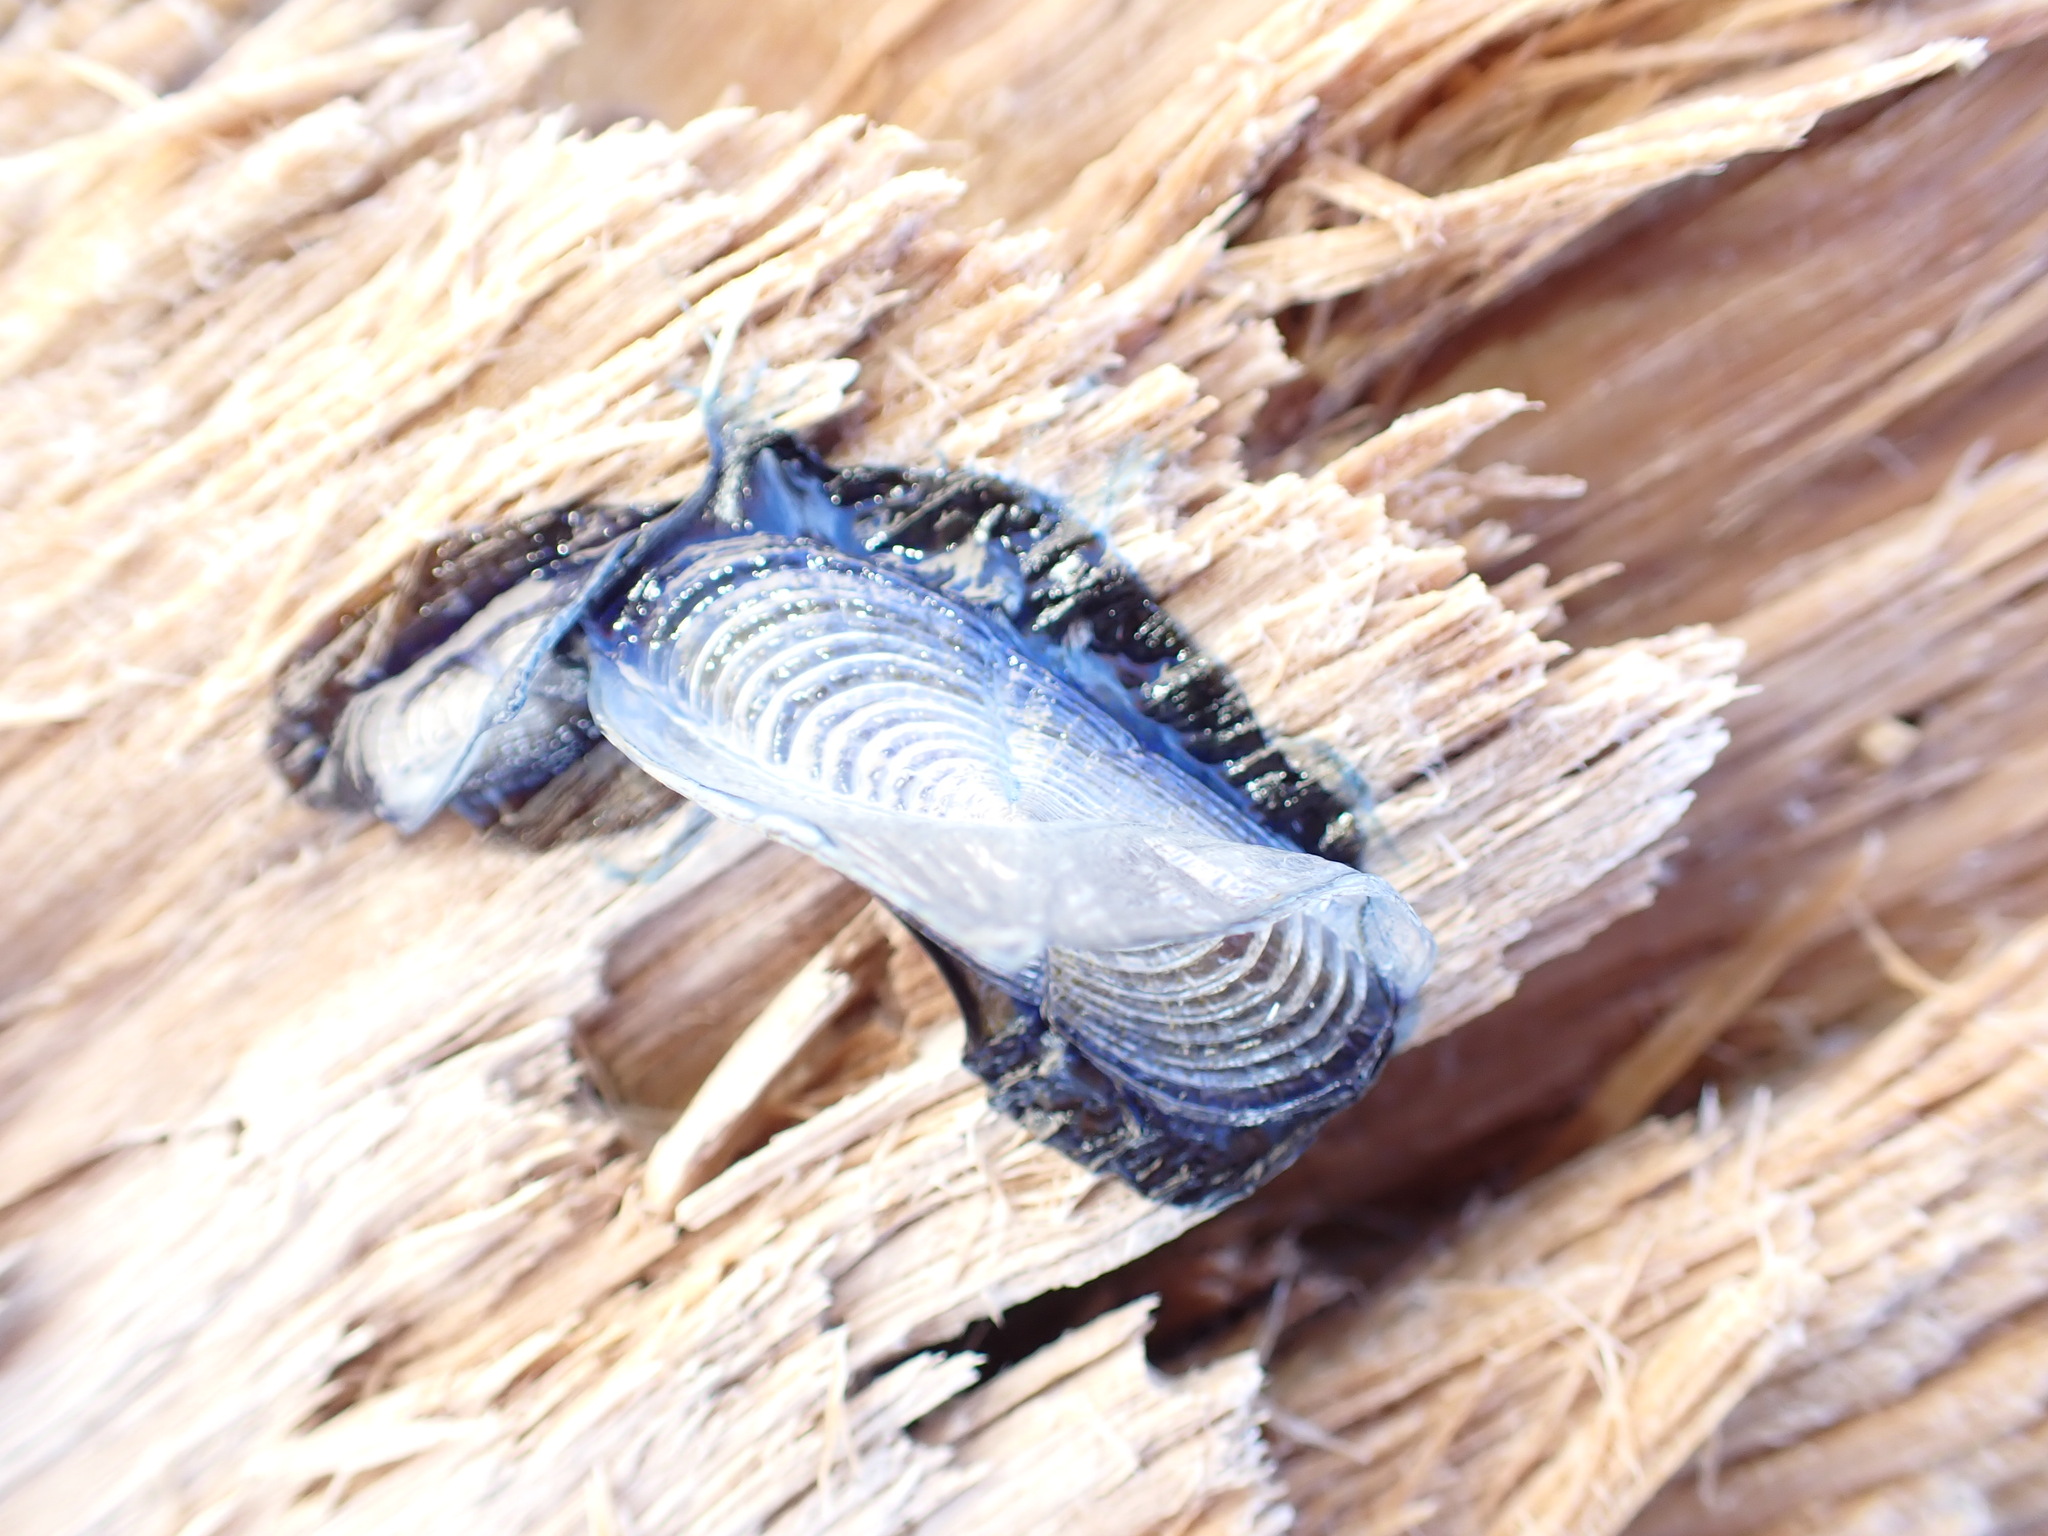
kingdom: Animalia
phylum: Cnidaria
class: Hydrozoa
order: Anthoathecata
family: Porpitidae
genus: Velella
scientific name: Velella velella
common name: By-the-wind-sailor
